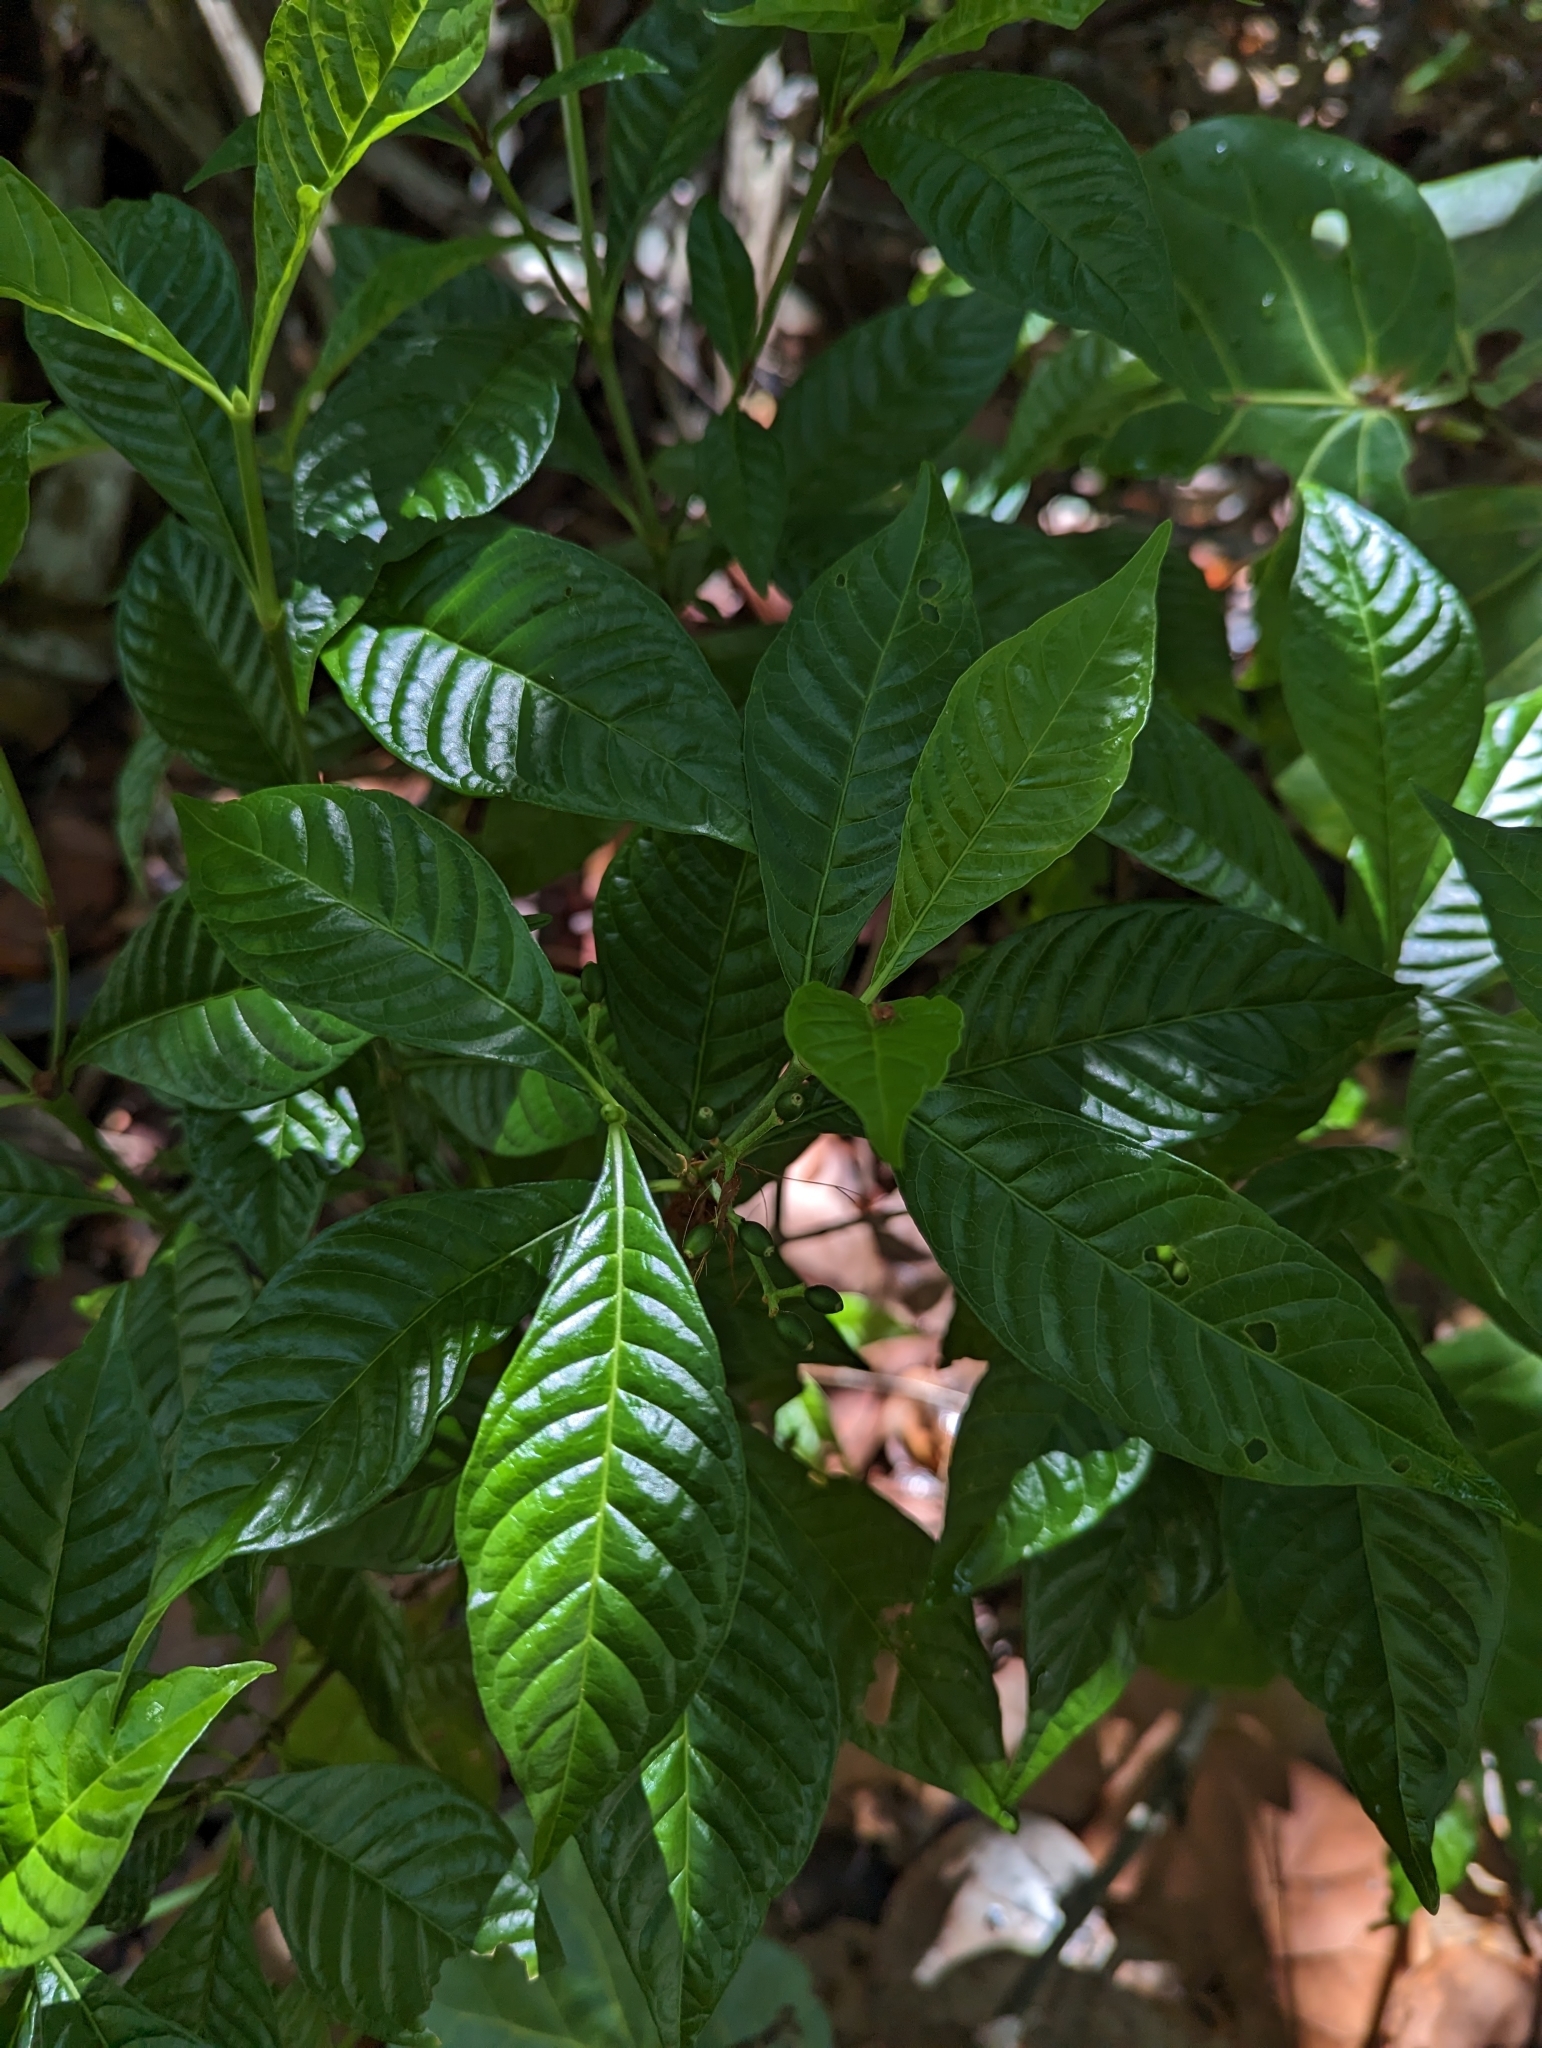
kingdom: Plantae
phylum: Tracheophyta
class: Magnoliopsida
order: Gentianales
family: Rubiaceae
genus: Psychotria
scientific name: Psychotria nervosa
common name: Bastard cankerberry
